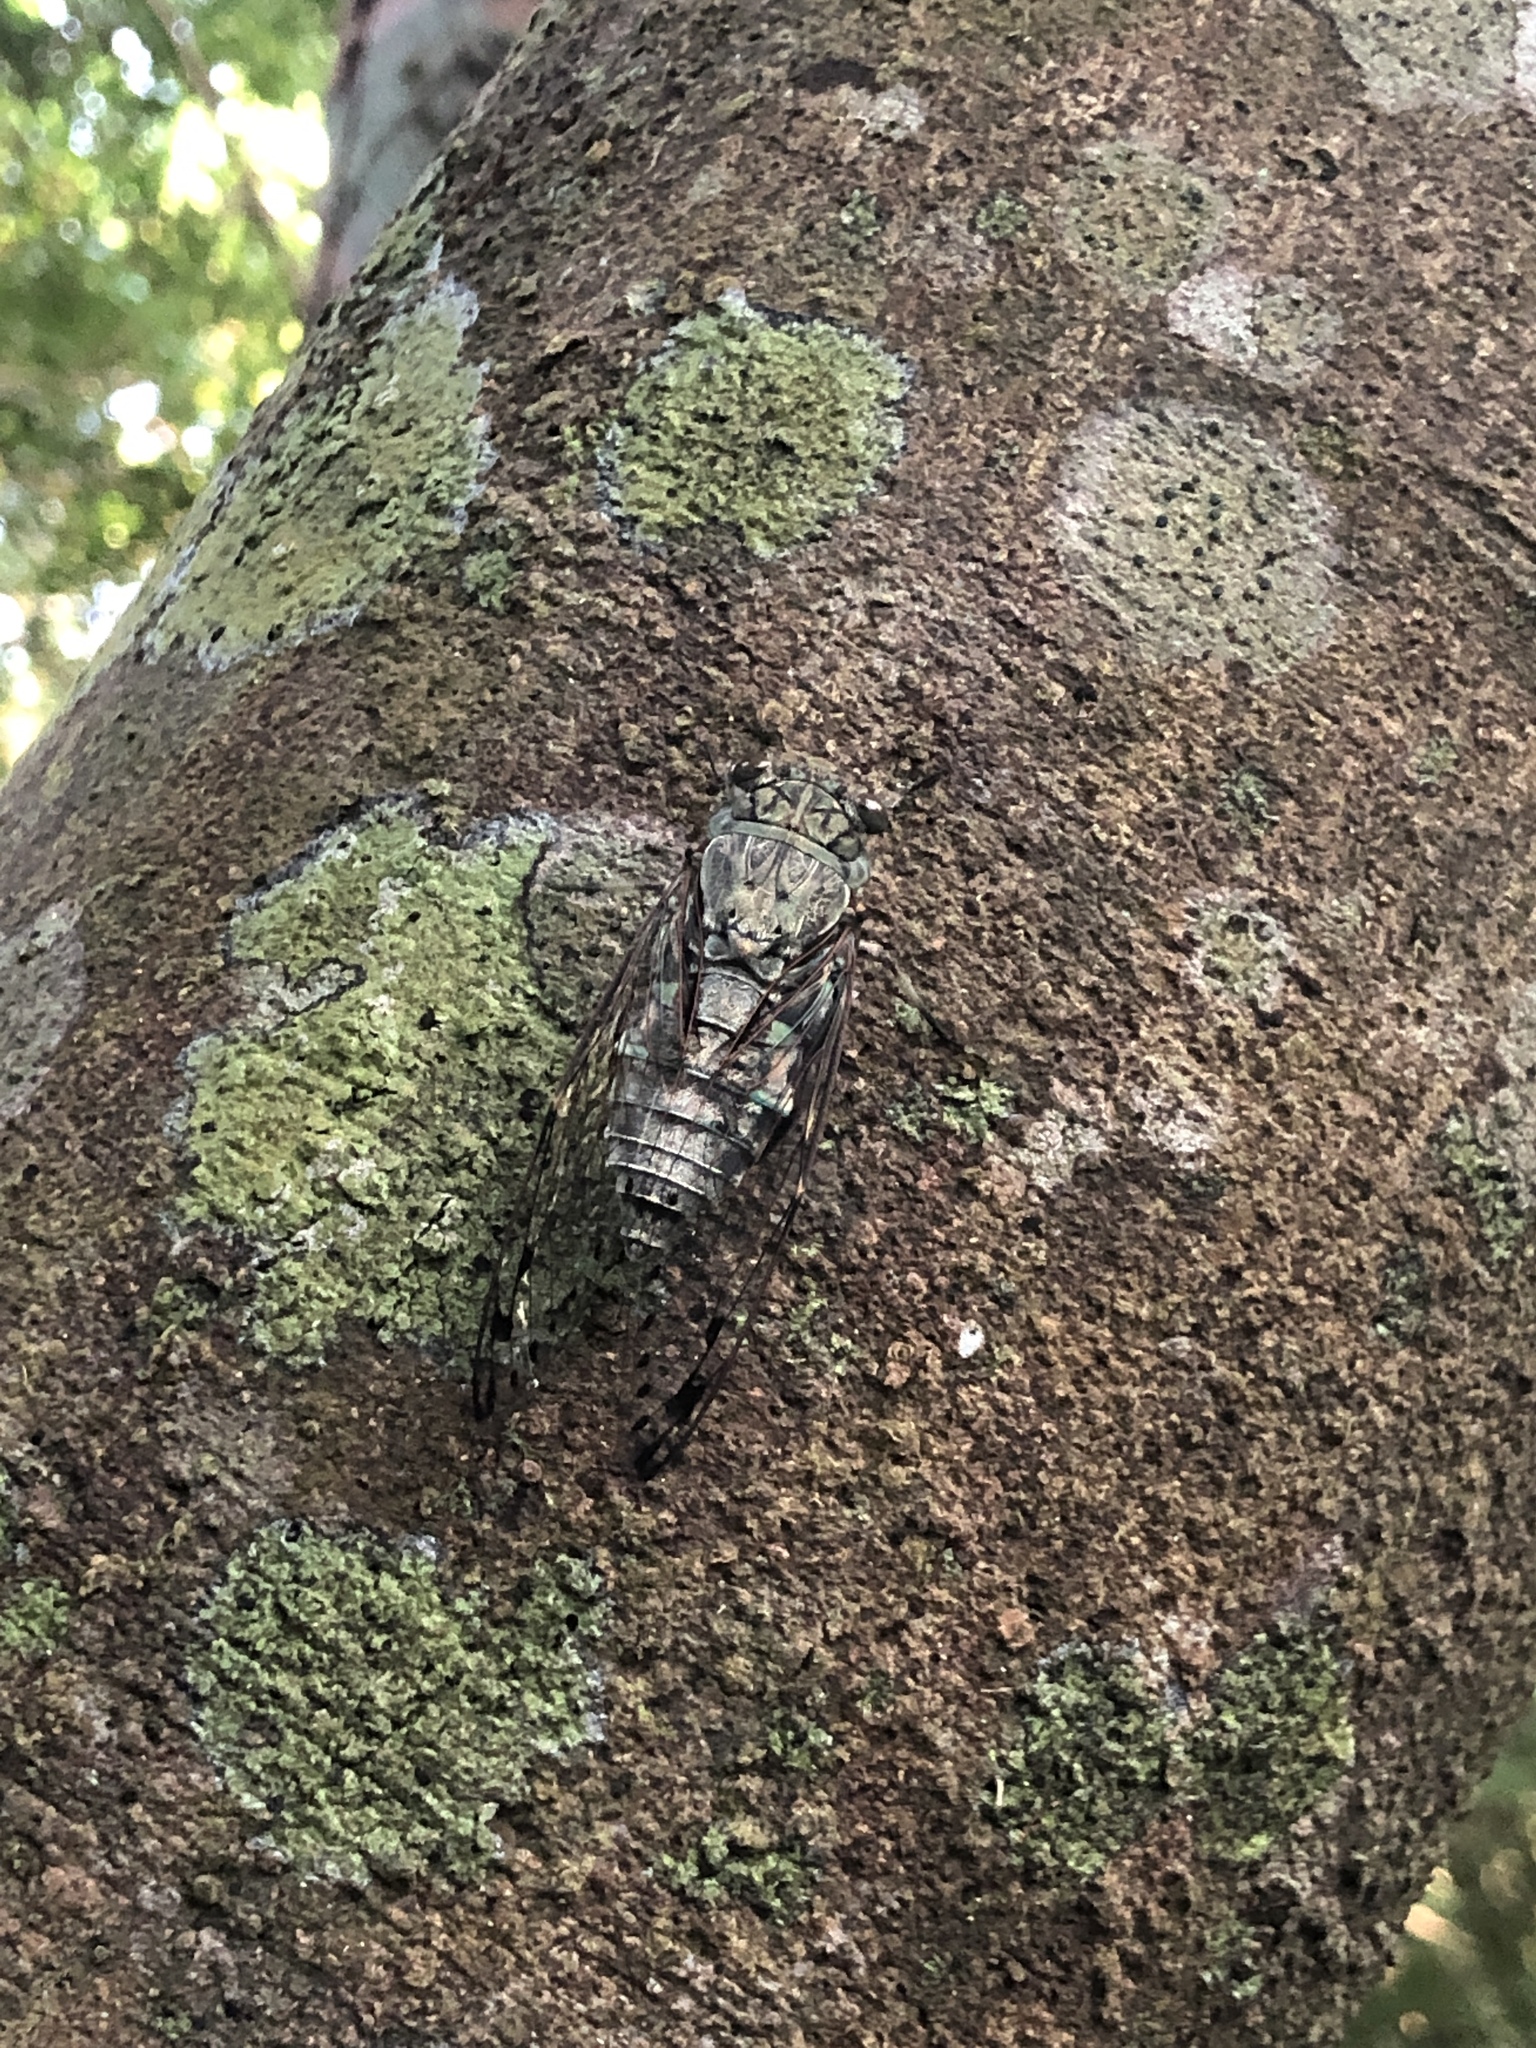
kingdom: Animalia
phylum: Arthropoda
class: Insecta
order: Hemiptera
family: Cicadidae
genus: Meimuna
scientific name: Meimuna oshimensis
